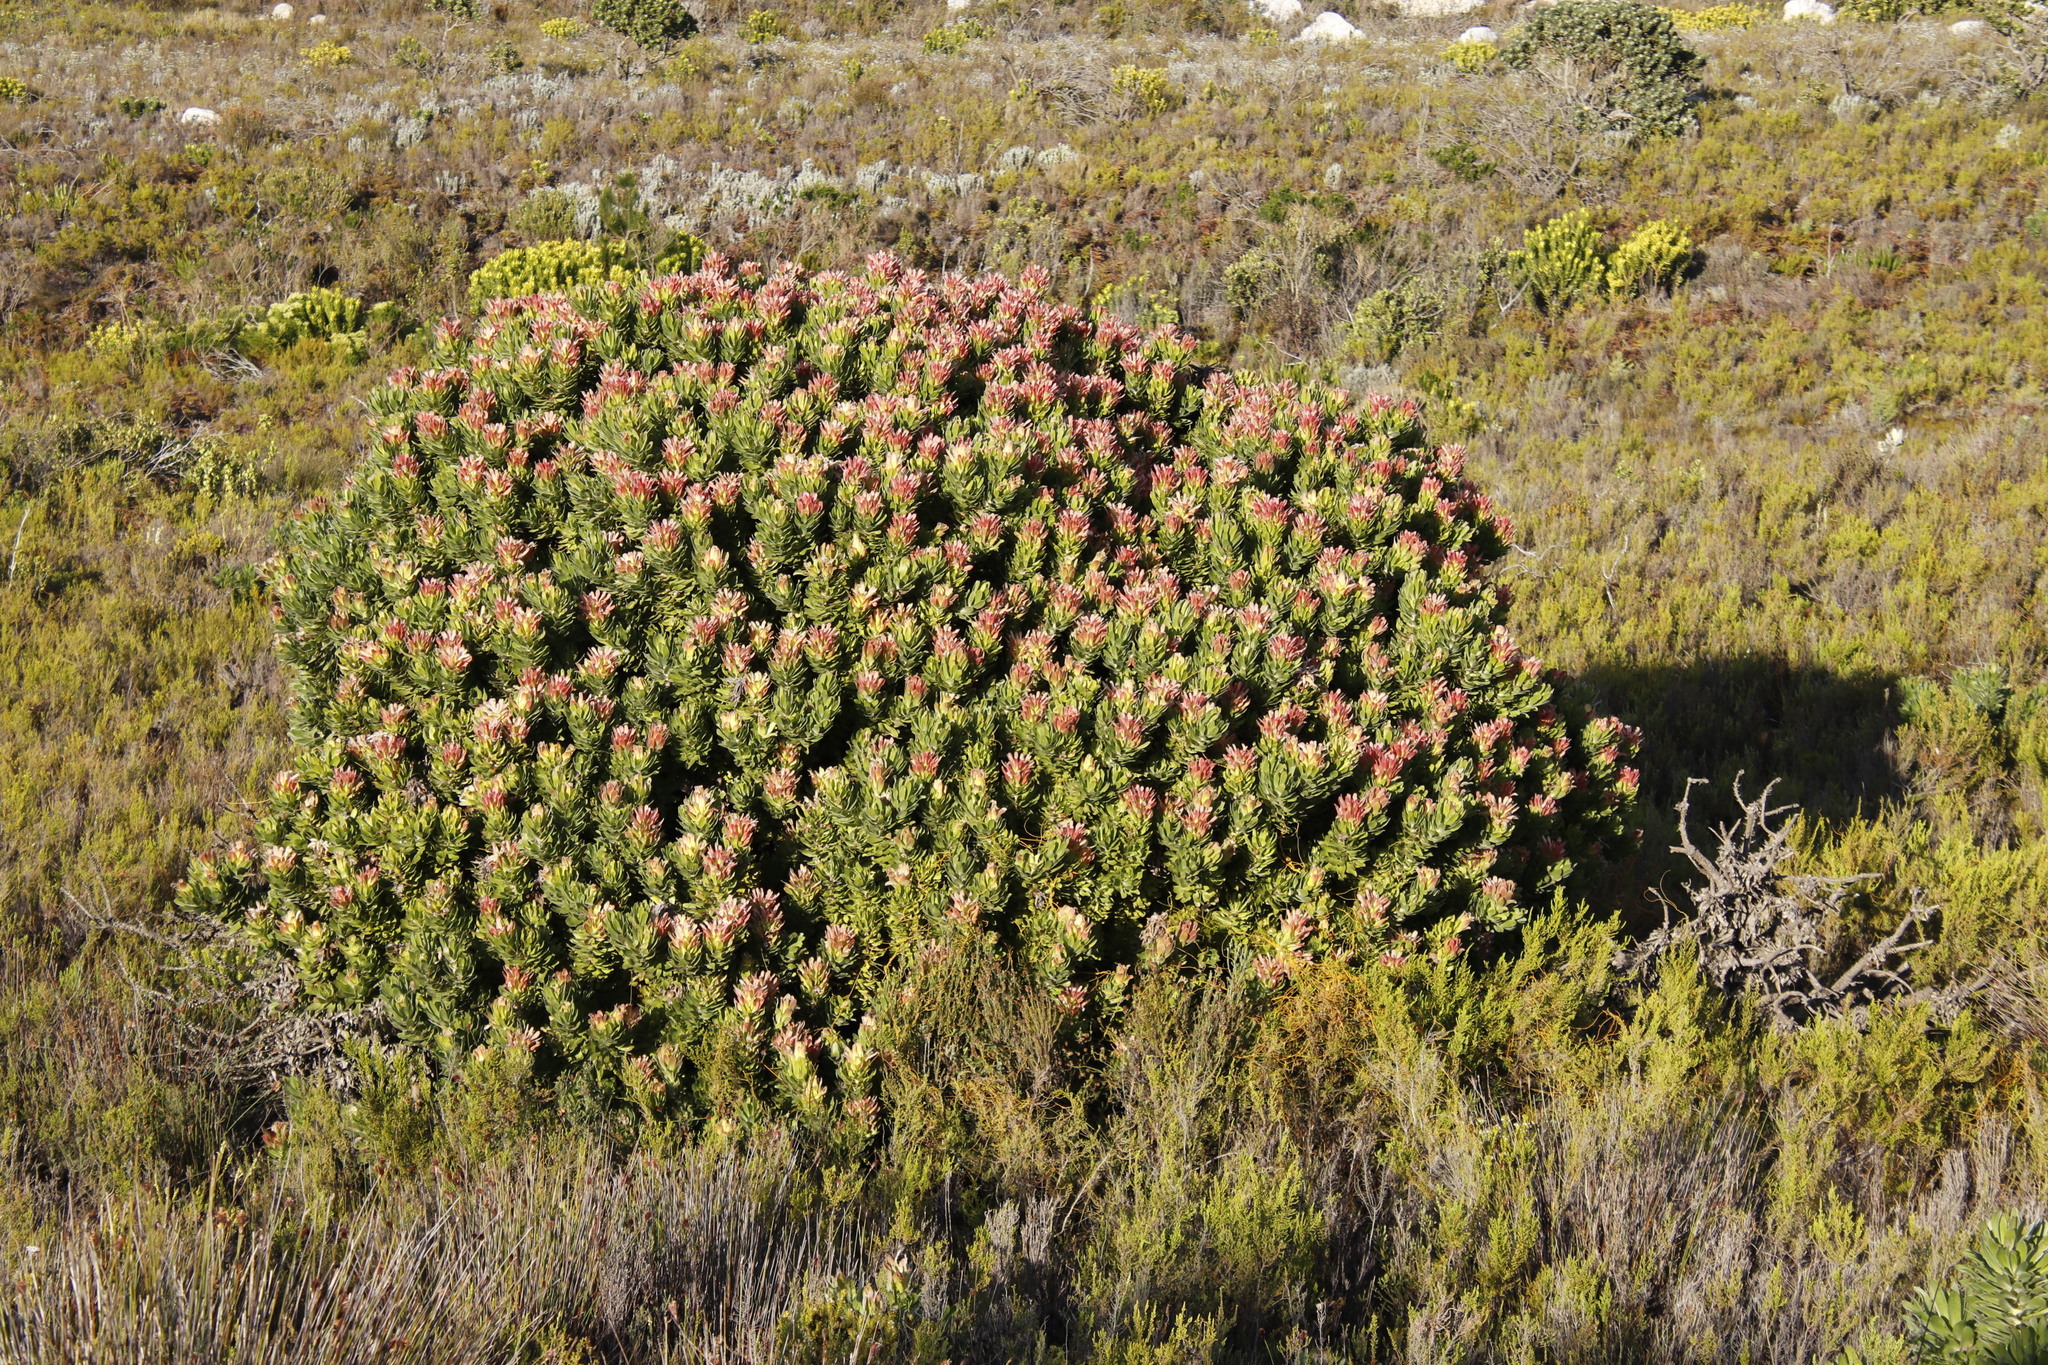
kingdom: Plantae
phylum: Tracheophyta
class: Magnoliopsida
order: Proteales
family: Proteaceae
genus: Mimetes
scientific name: Mimetes fimbriifolius
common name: Fringed bottlebrush
